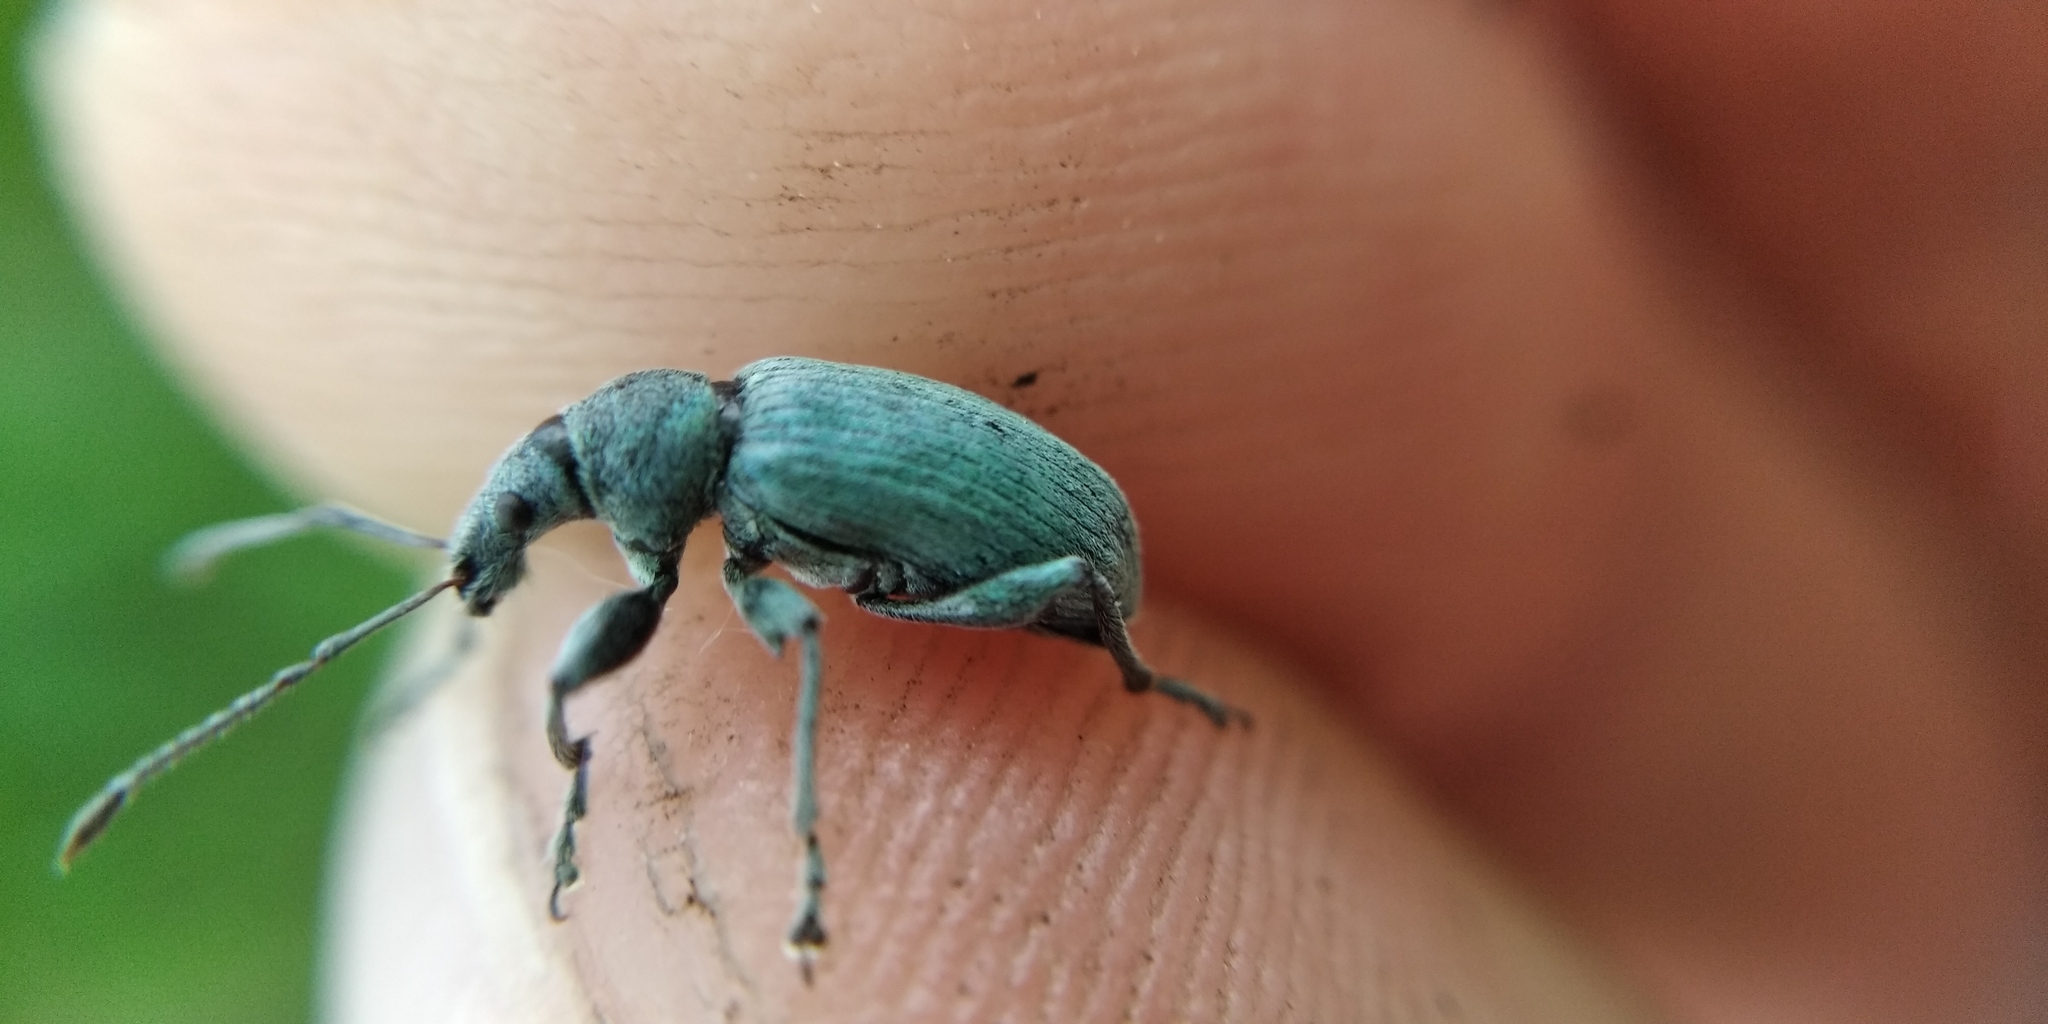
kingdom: Animalia
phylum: Arthropoda
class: Insecta
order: Coleoptera
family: Curculionidae
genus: Phyllobius
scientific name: Phyllobius pomaceus
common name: Green nettle weevil
